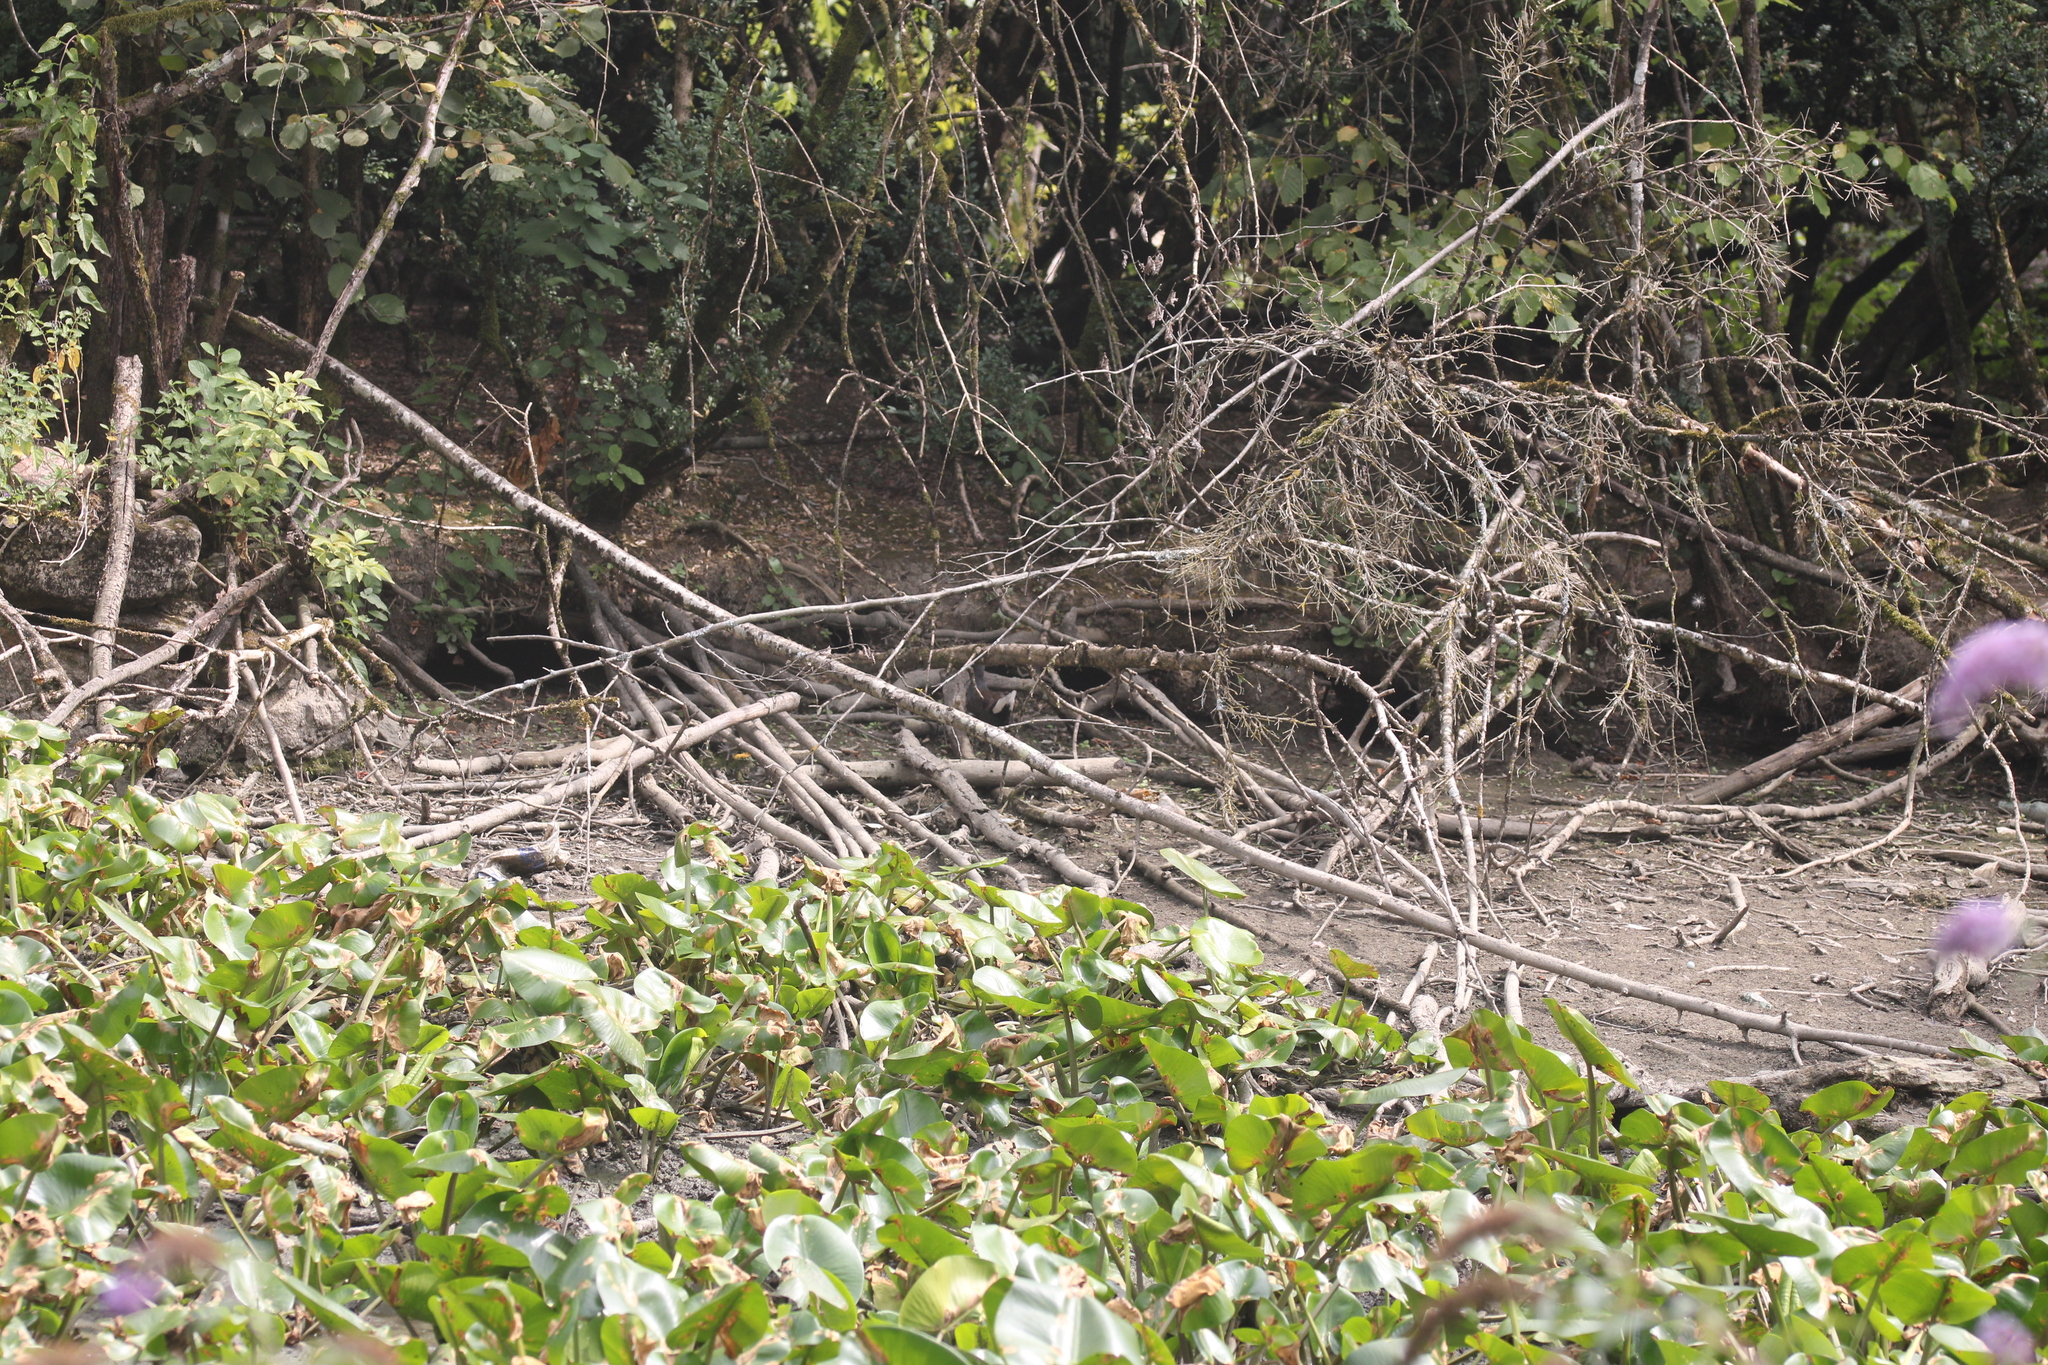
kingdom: Animalia
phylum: Chordata
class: Aves
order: Gruiformes
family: Rallidae
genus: Gallinula
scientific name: Gallinula chloropus
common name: Common moorhen
